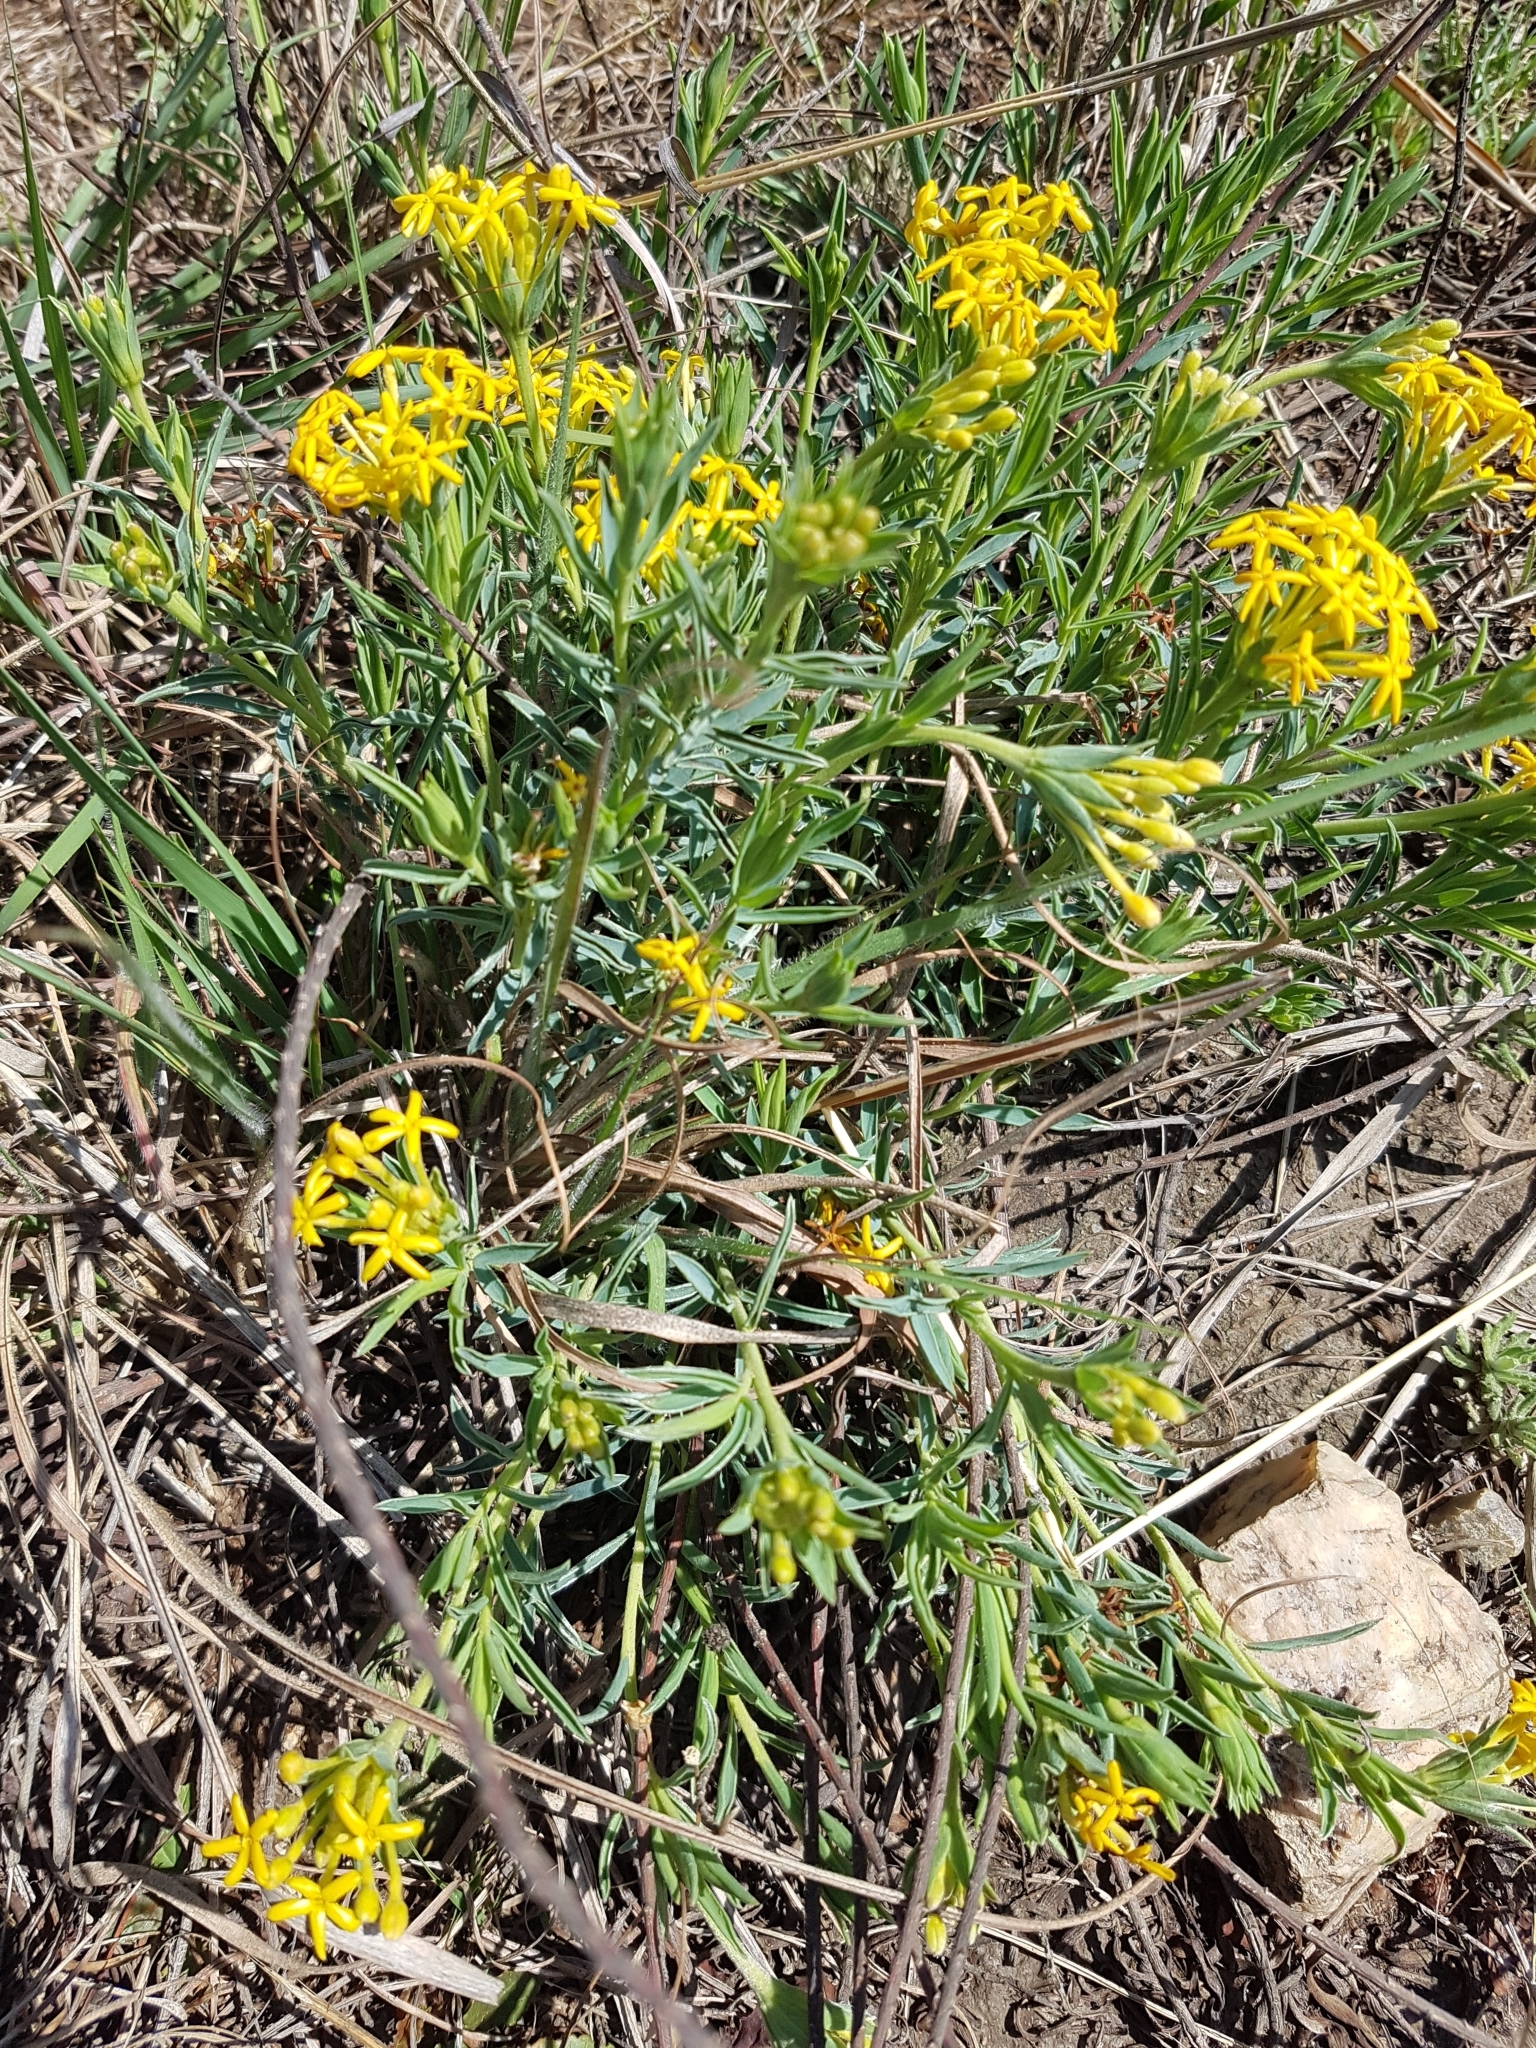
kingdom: Plantae
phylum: Tracheophyta
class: Magnoliopsida
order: Malvales
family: Thymelaeaceae
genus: Gnidia
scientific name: Gnidia capitata
